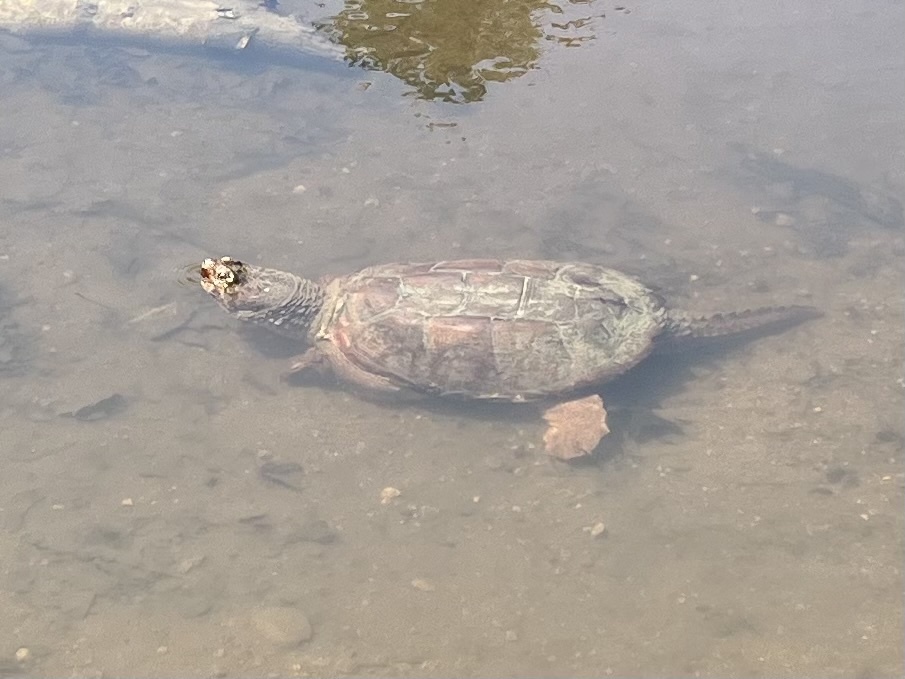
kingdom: Animalia
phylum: Chordata
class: Testudines
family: Chelydridae
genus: Chelydra
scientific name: Chelydra serpentina
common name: Common snapping turtle
